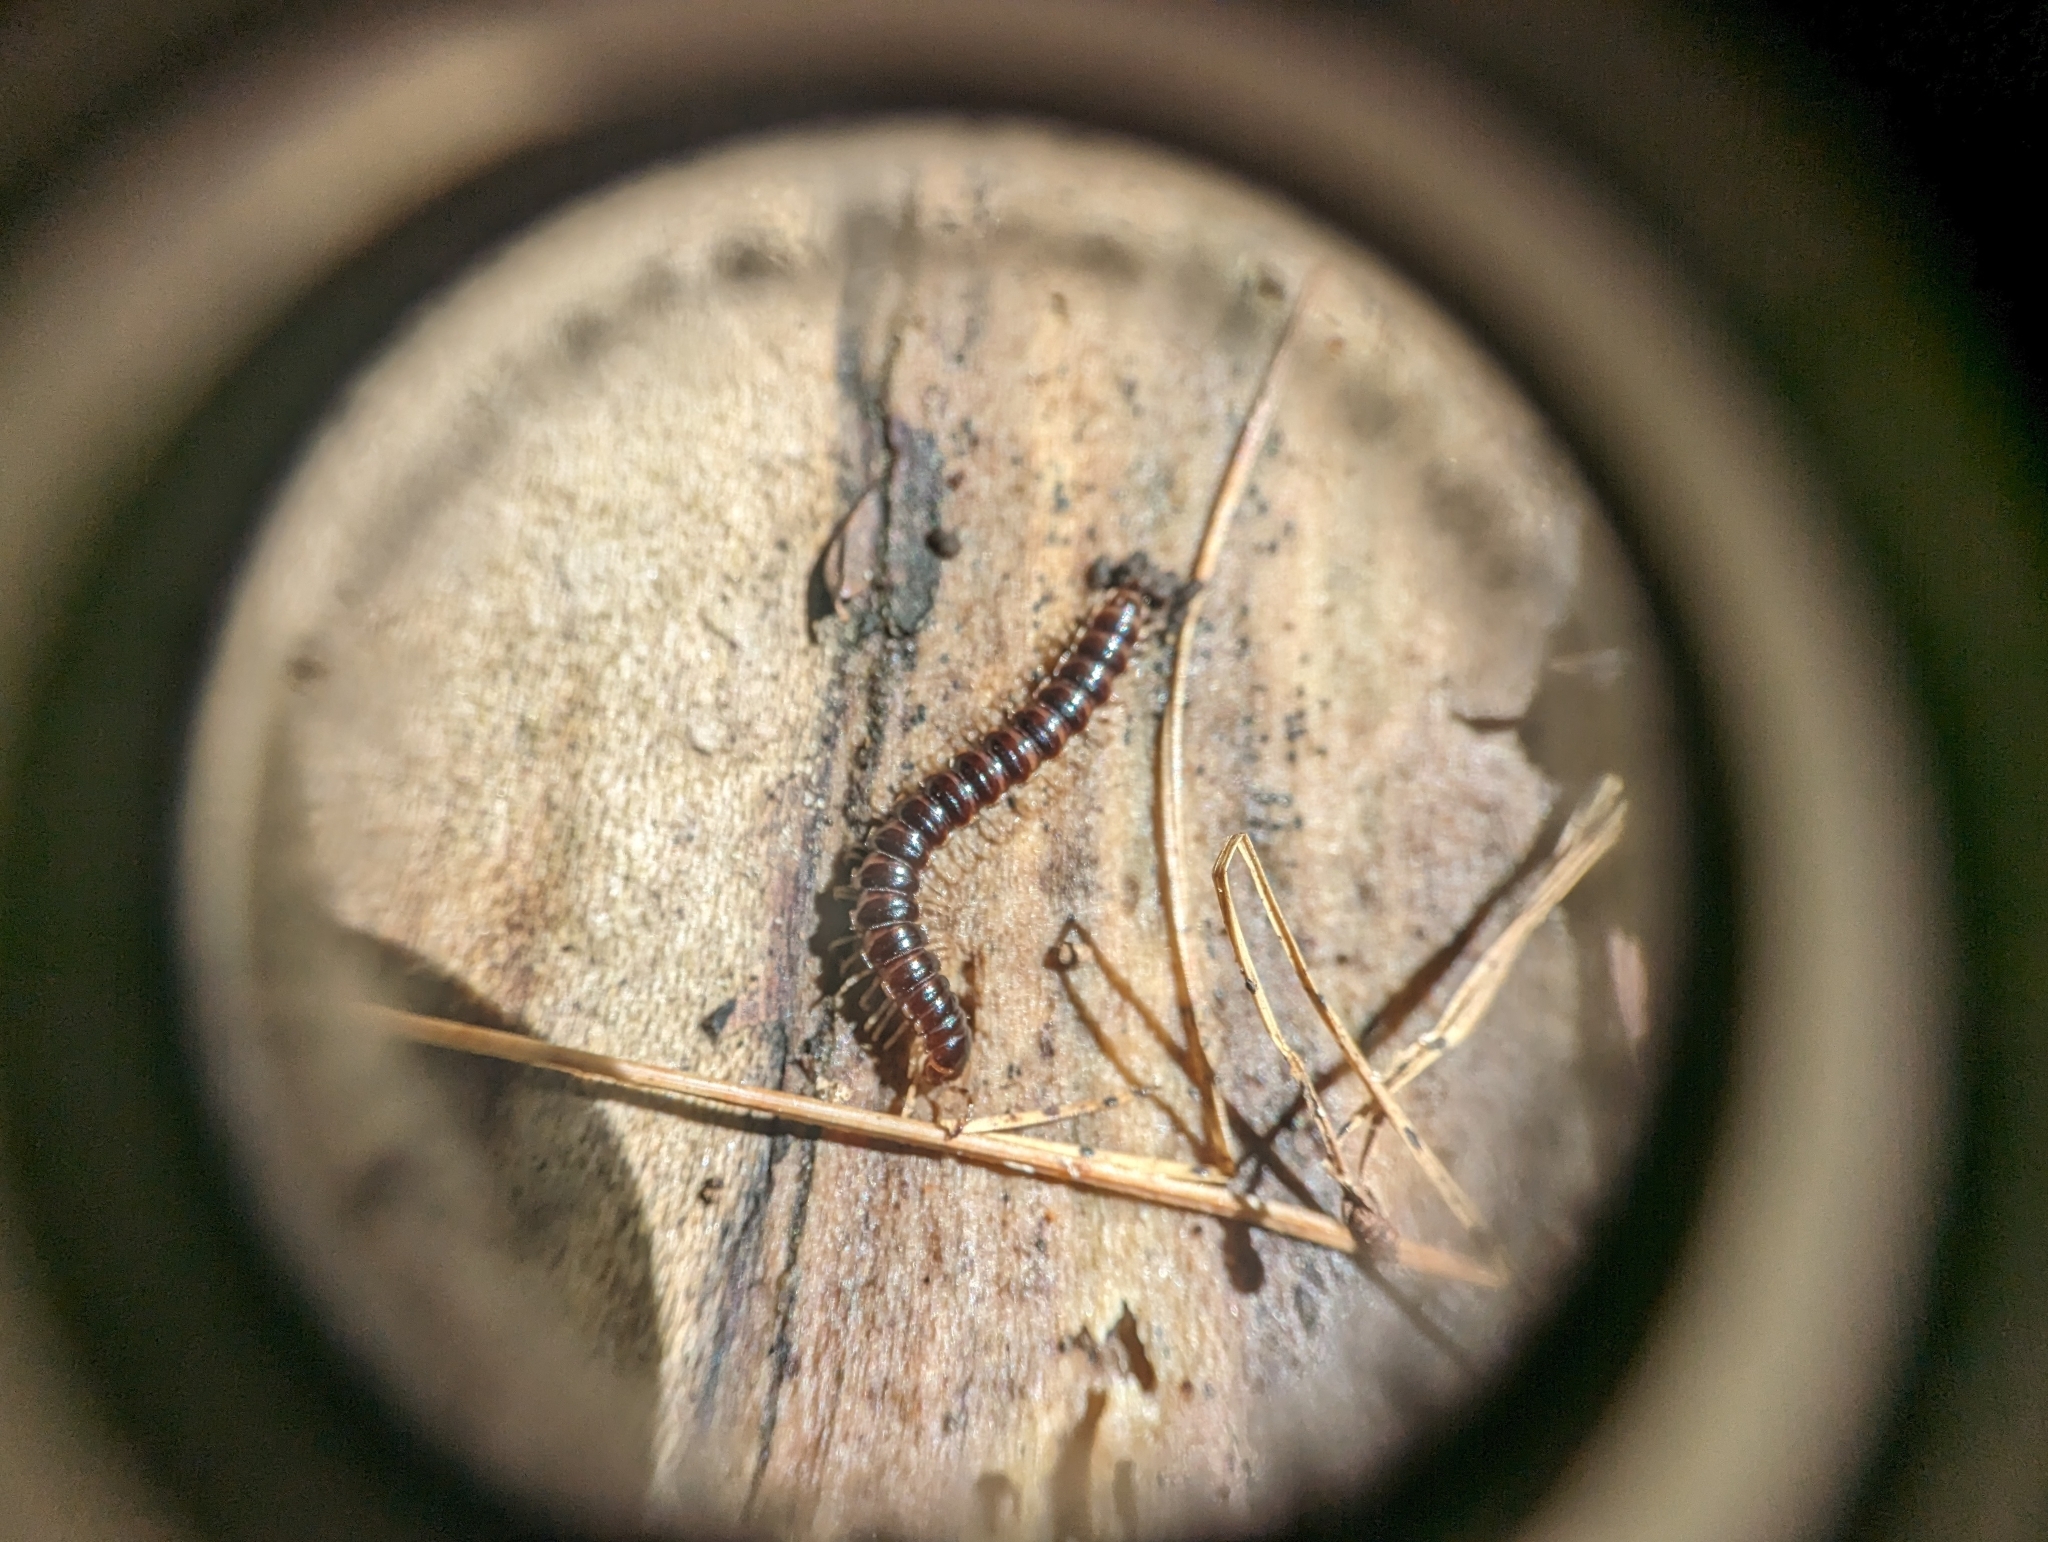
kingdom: Animalia
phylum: Arthropoda
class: Diplopoda
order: Polydesmida
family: Paradoxosomatidae
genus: Oxidus
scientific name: Oxidus gracilis
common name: Greenhouse millipede
